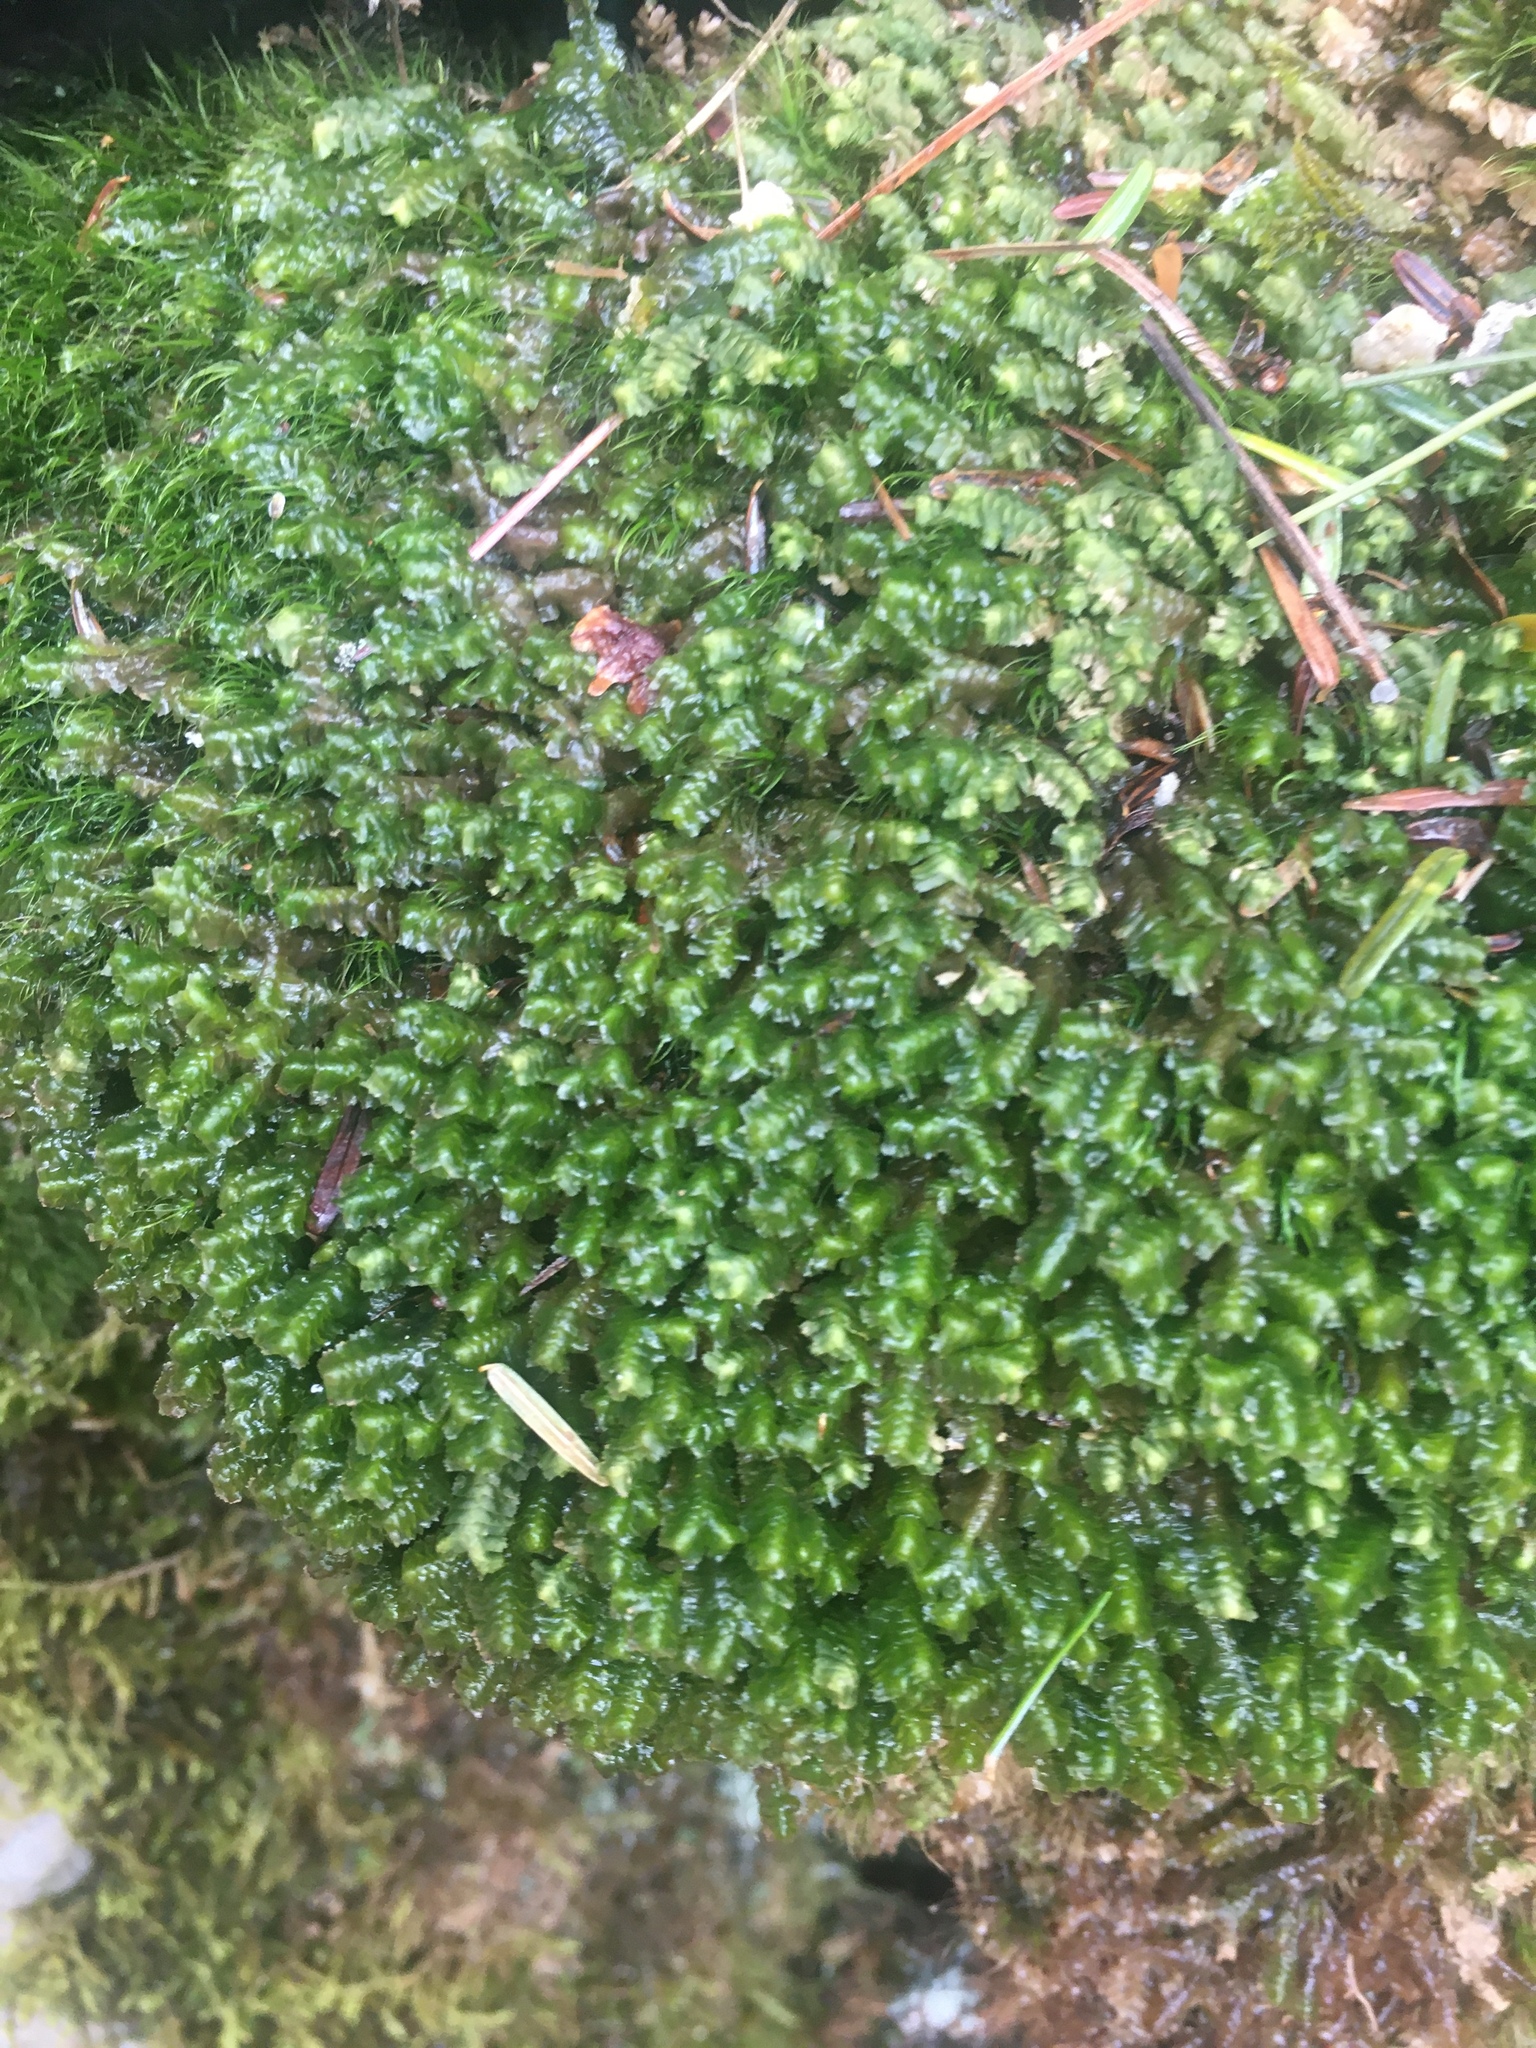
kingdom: Plantae
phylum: Marchantiophyta
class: Jungermanniopsida
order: Jungermanniales
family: Lepidoziaceae
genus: Bazzania
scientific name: Bazzania trilobata
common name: Three-lobed whipwort
